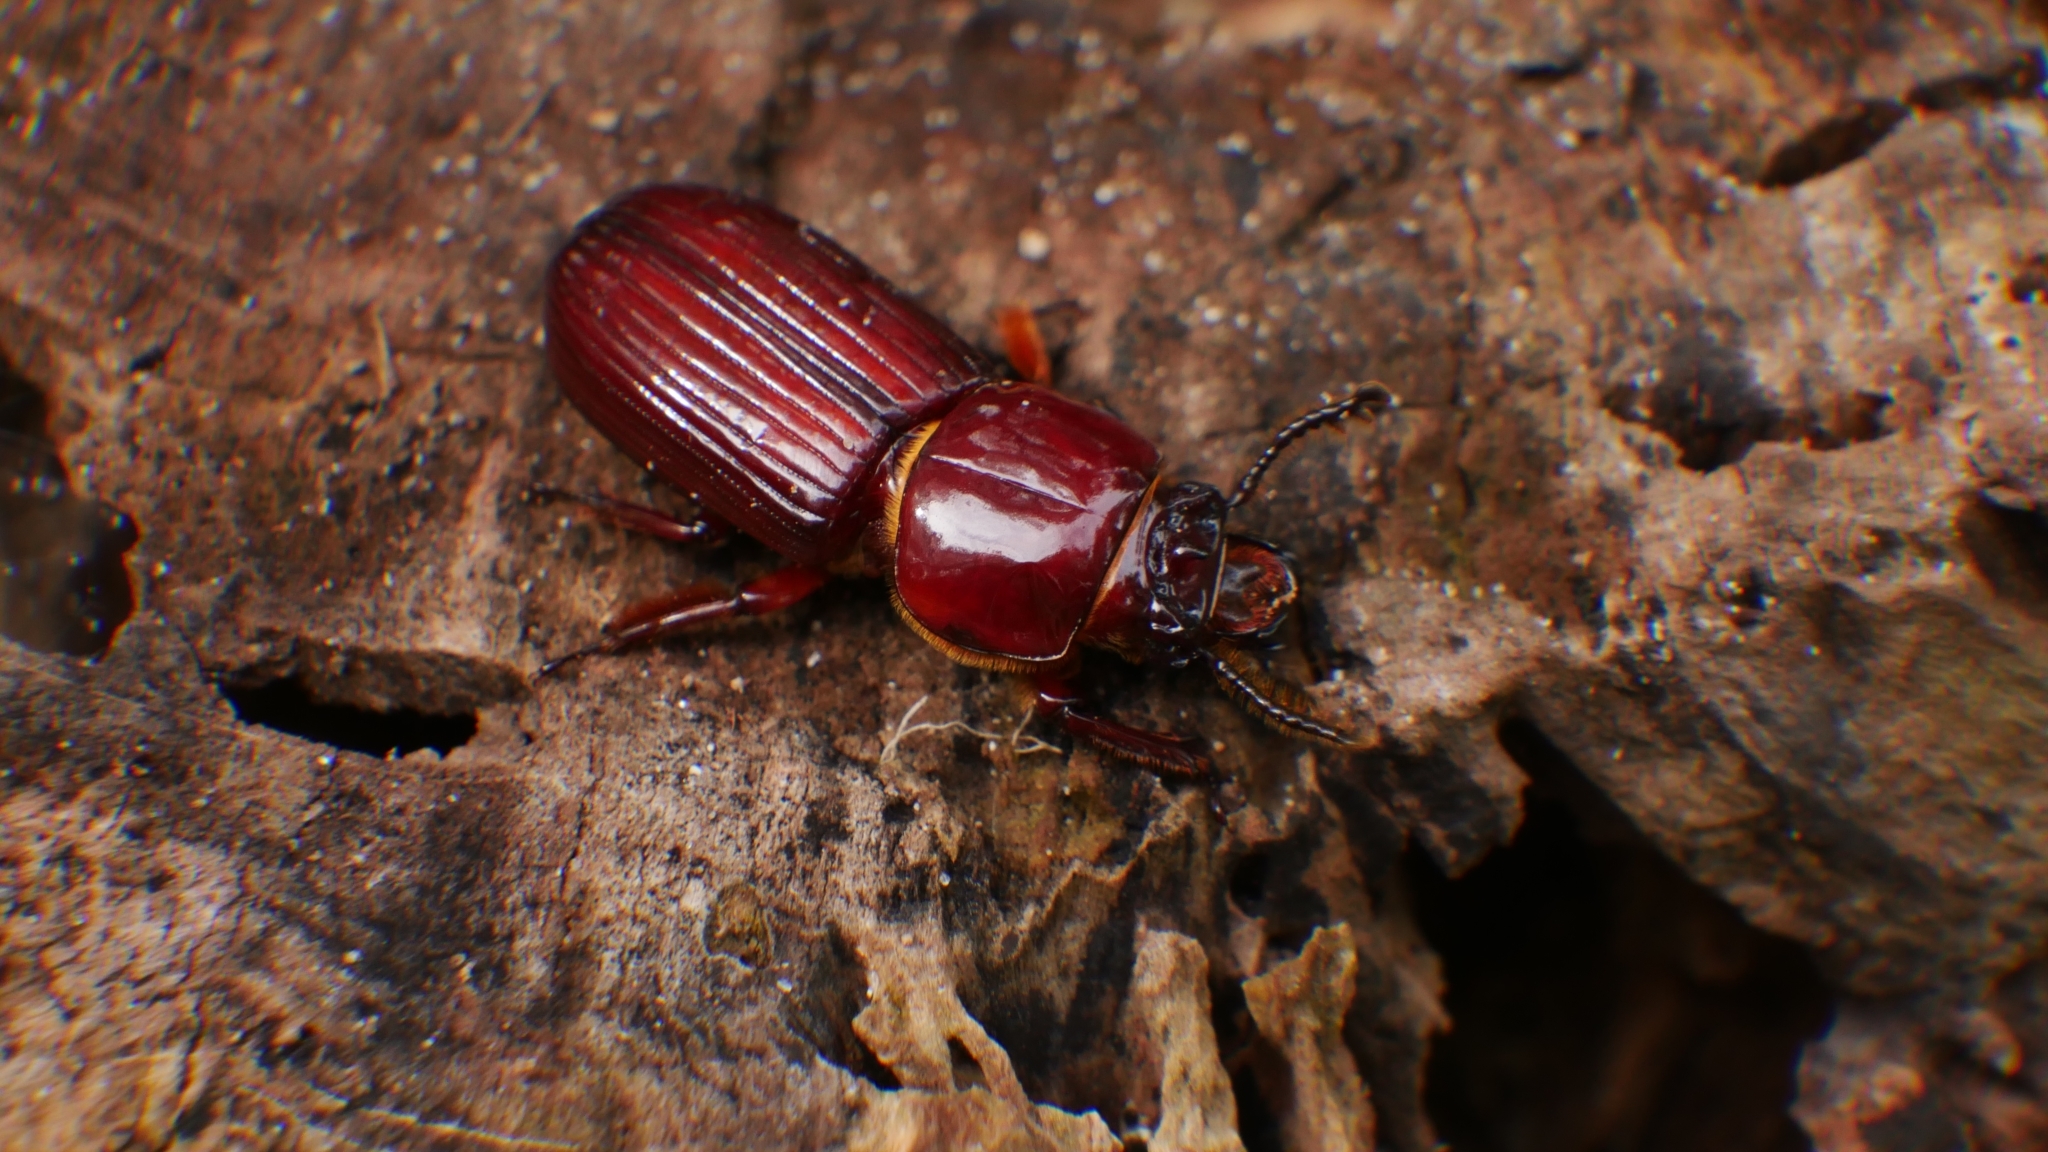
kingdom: Animalia
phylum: Arthropoda
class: Insecta
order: Coleoptera
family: Passalidae
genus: Odontotaenius
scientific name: Odontotaenius disjunctus
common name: Patent leather beetle
